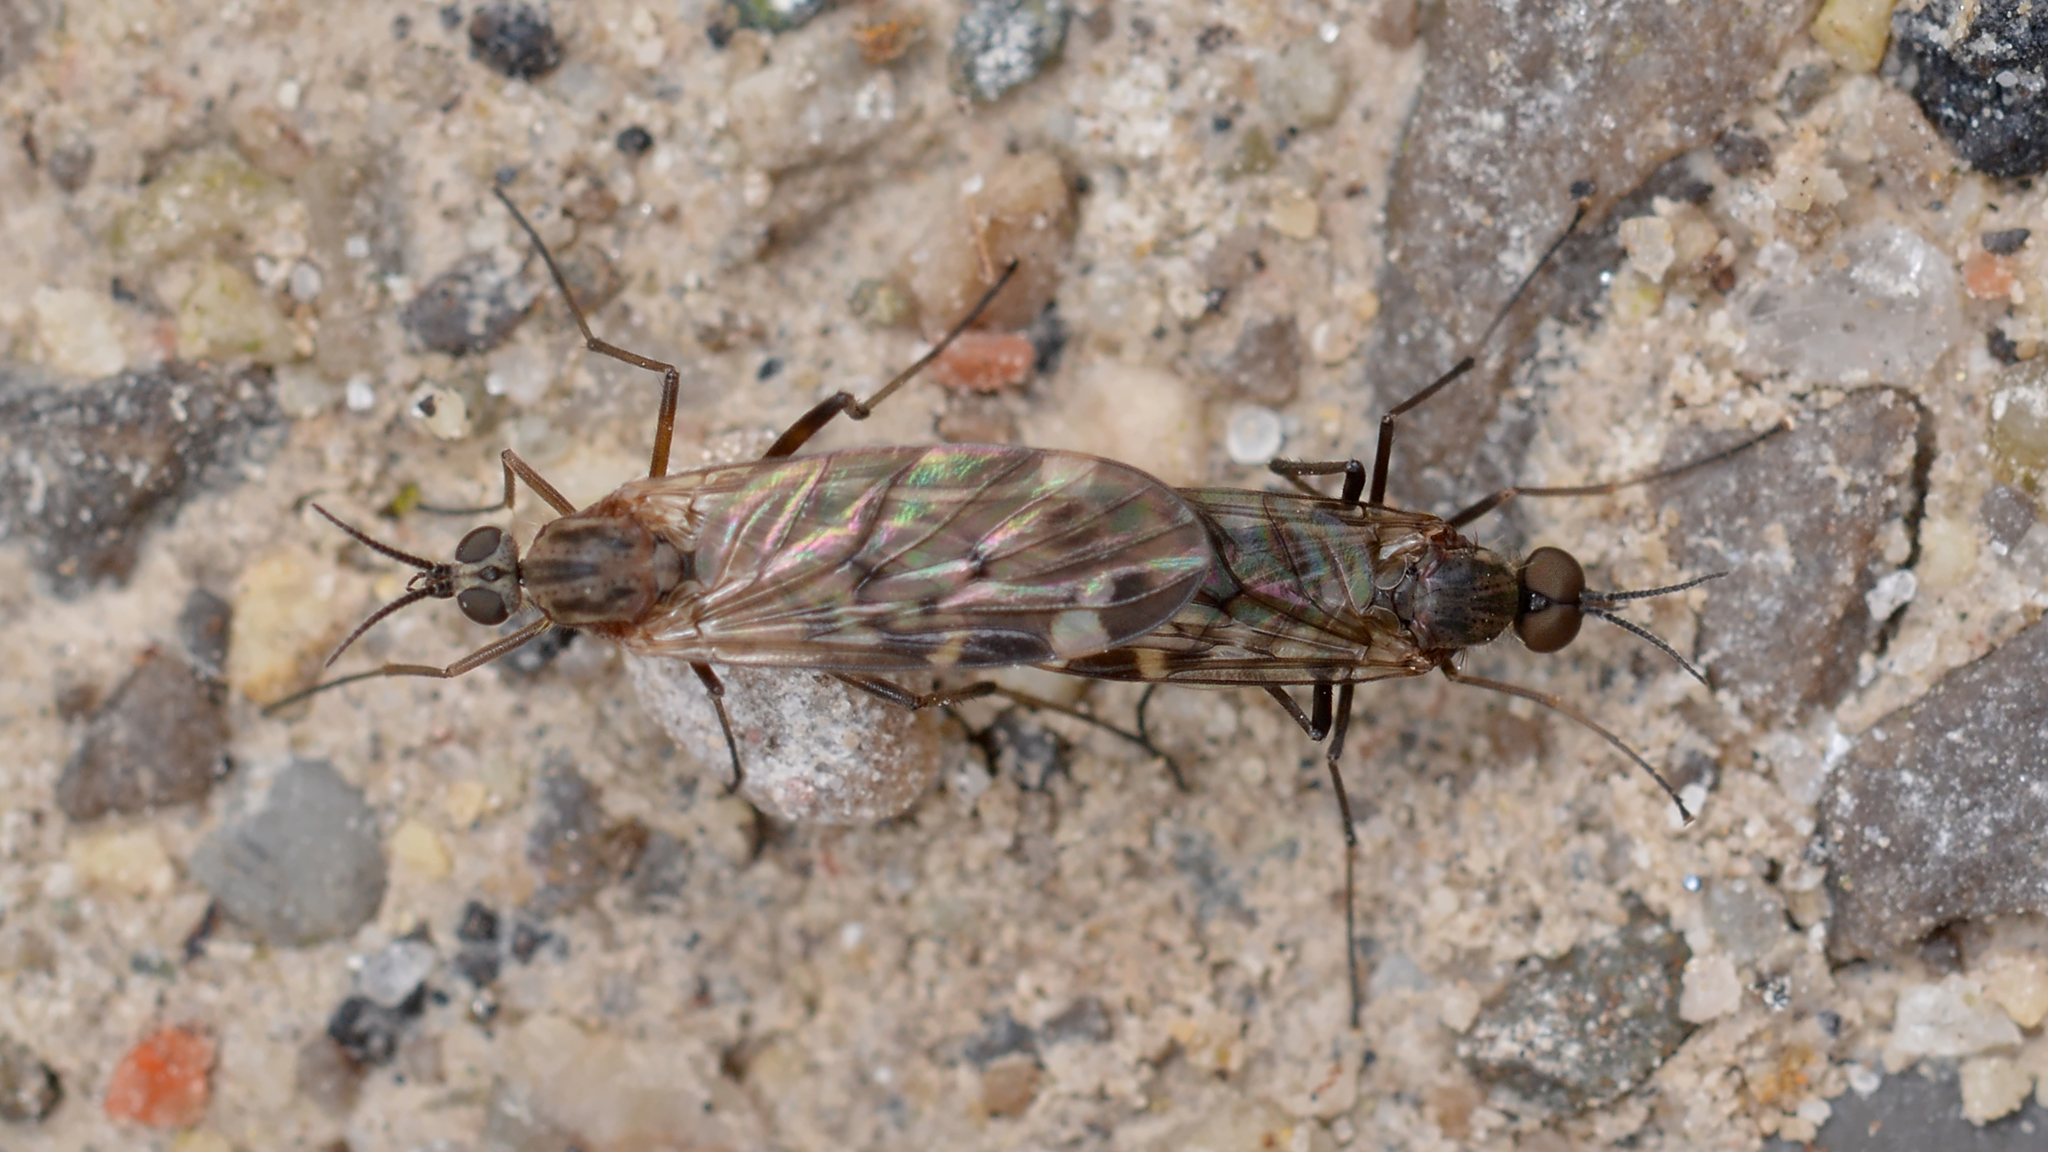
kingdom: Animalia
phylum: Arthropoda
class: Insecta
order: Diptera
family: Anisopodidae
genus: Sylvicola
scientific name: Sylvicola alternata
